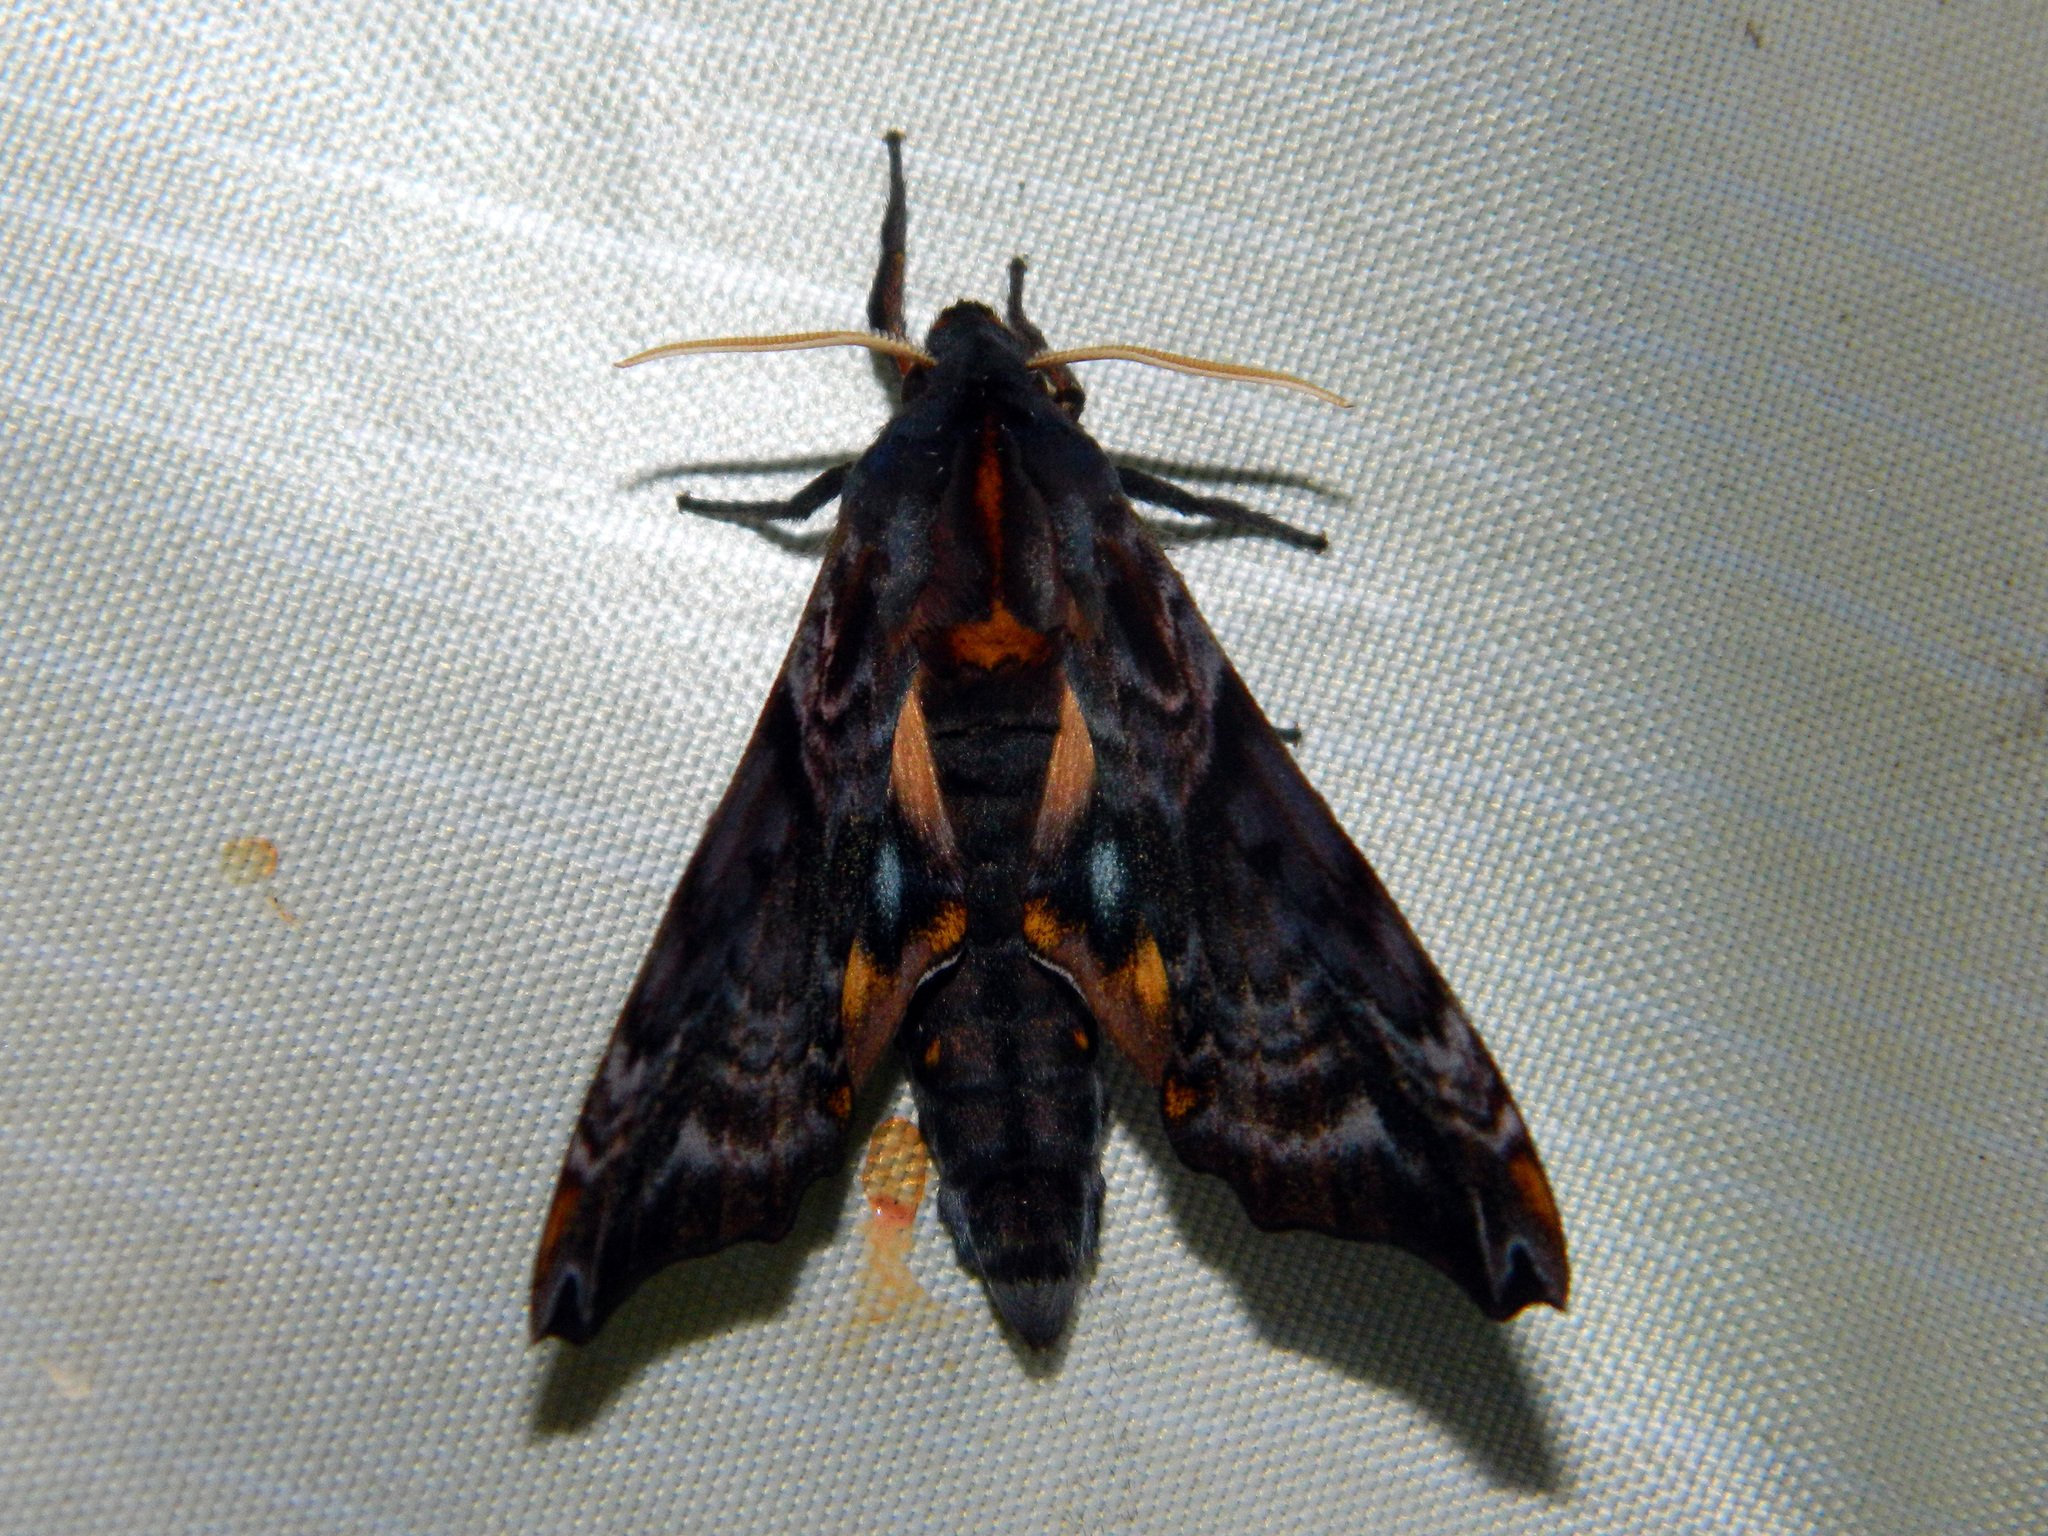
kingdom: Animalia
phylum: Arthropoda
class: Insecta
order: Lepidoptera
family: Sphingidae
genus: Paonias
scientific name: Paonias myops
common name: Small-eyed sphinx
